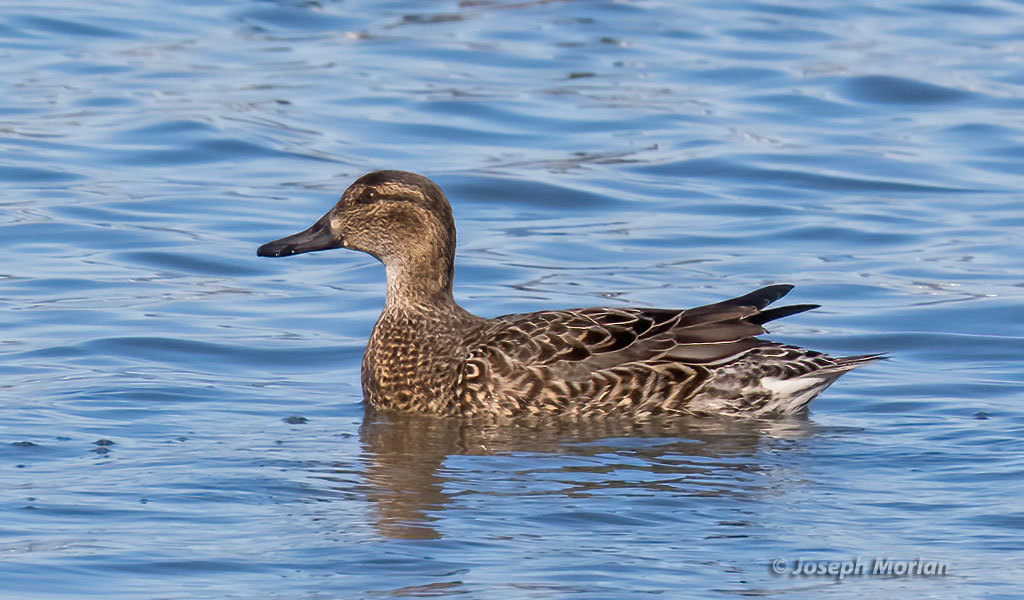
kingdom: Animalia
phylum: Chordata
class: Aves
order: Anseriformes
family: Anatidae
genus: Anas
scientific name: Anas crecca
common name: Eurasian teal
